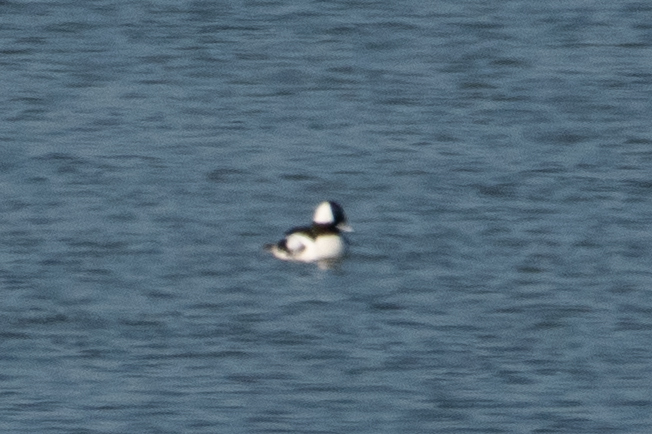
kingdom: Animalia
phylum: Chordata
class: Aves
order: Anseriformes
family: Anatidae
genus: Bucephala
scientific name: Bucephala albeola
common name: Bufflehead
